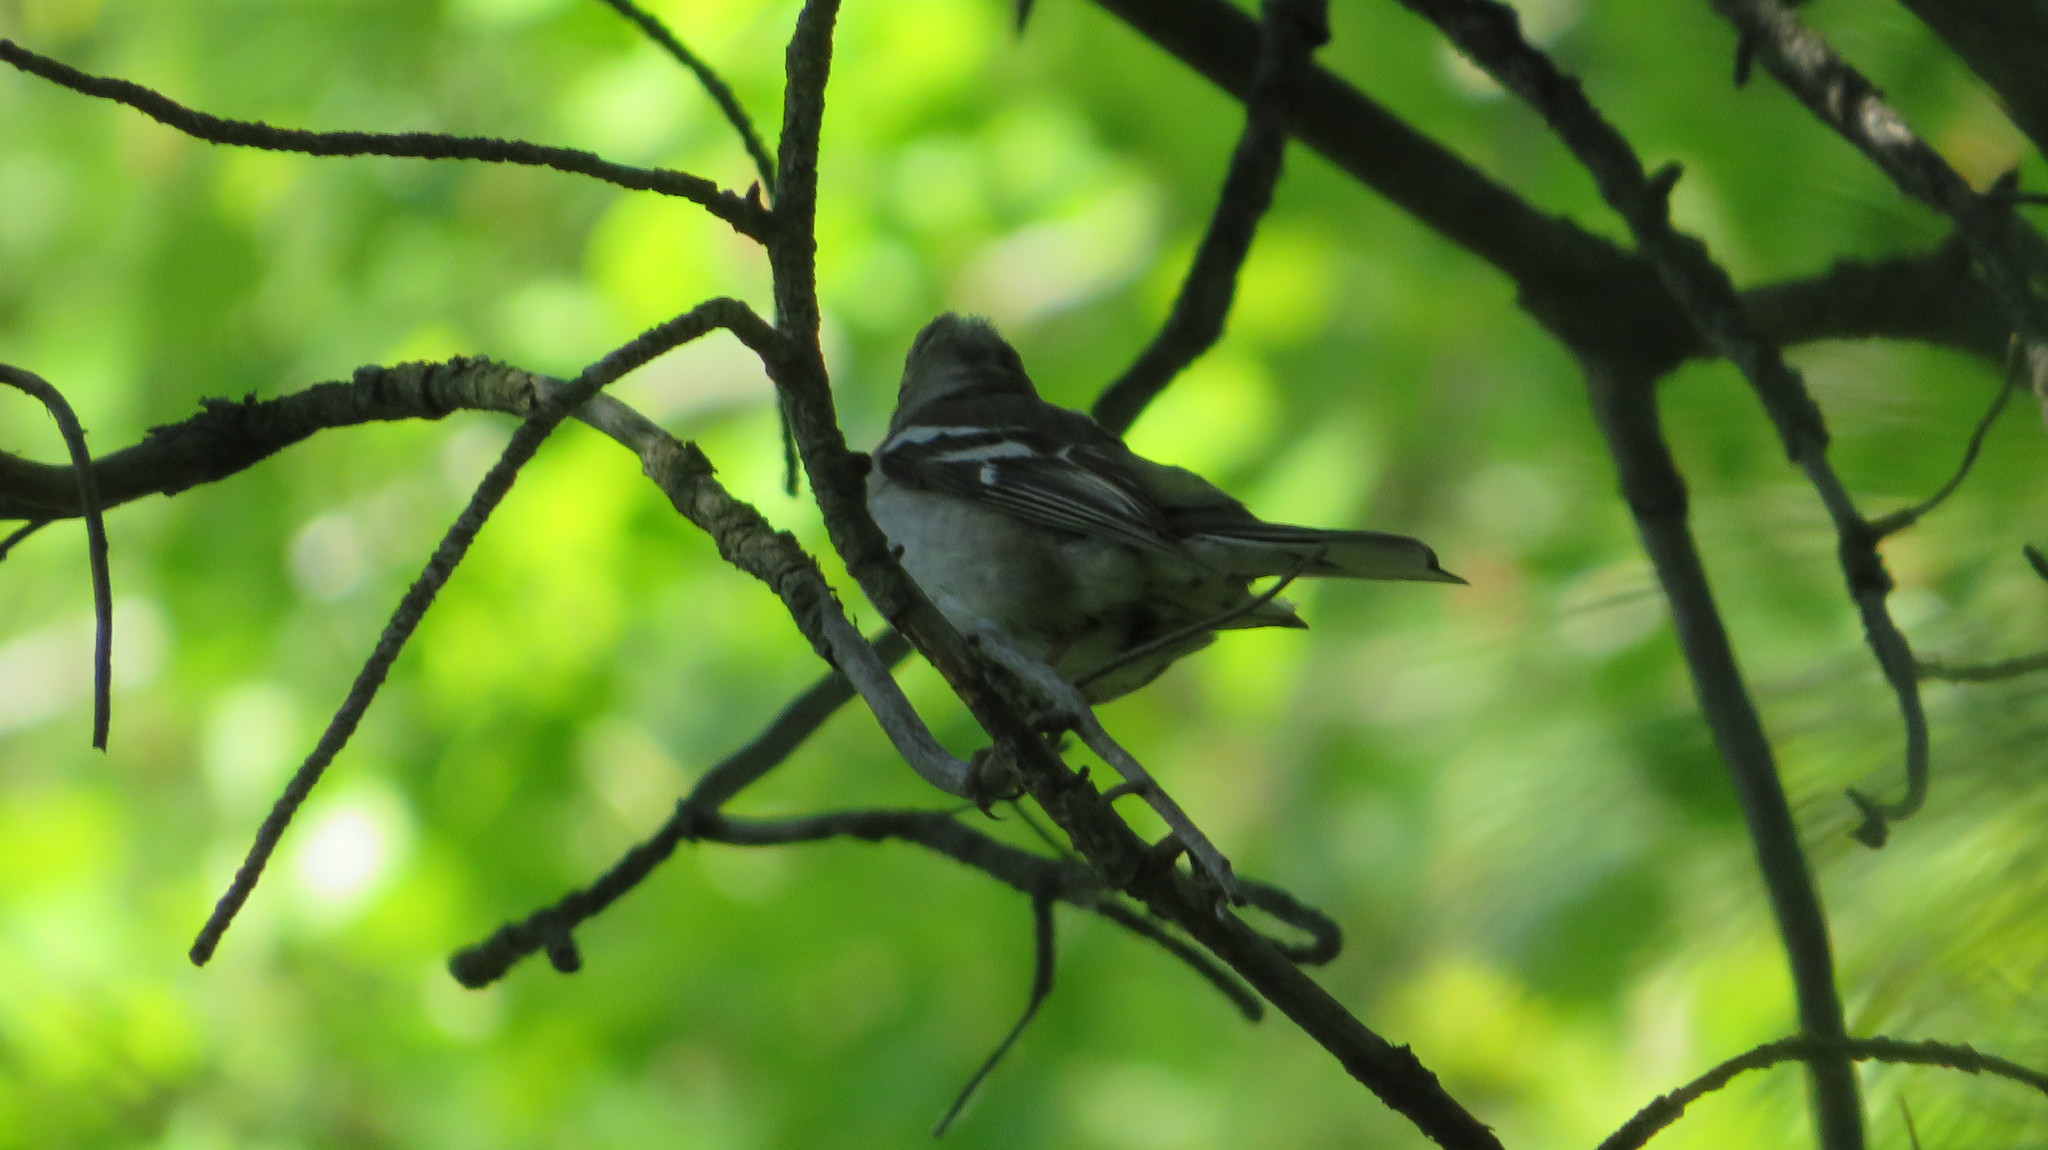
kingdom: Animalia
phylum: Chordata
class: Aves
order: Passeriformes
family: Fringillidae
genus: Fringilla
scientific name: Fringilla coelebs
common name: Common chaffinch
